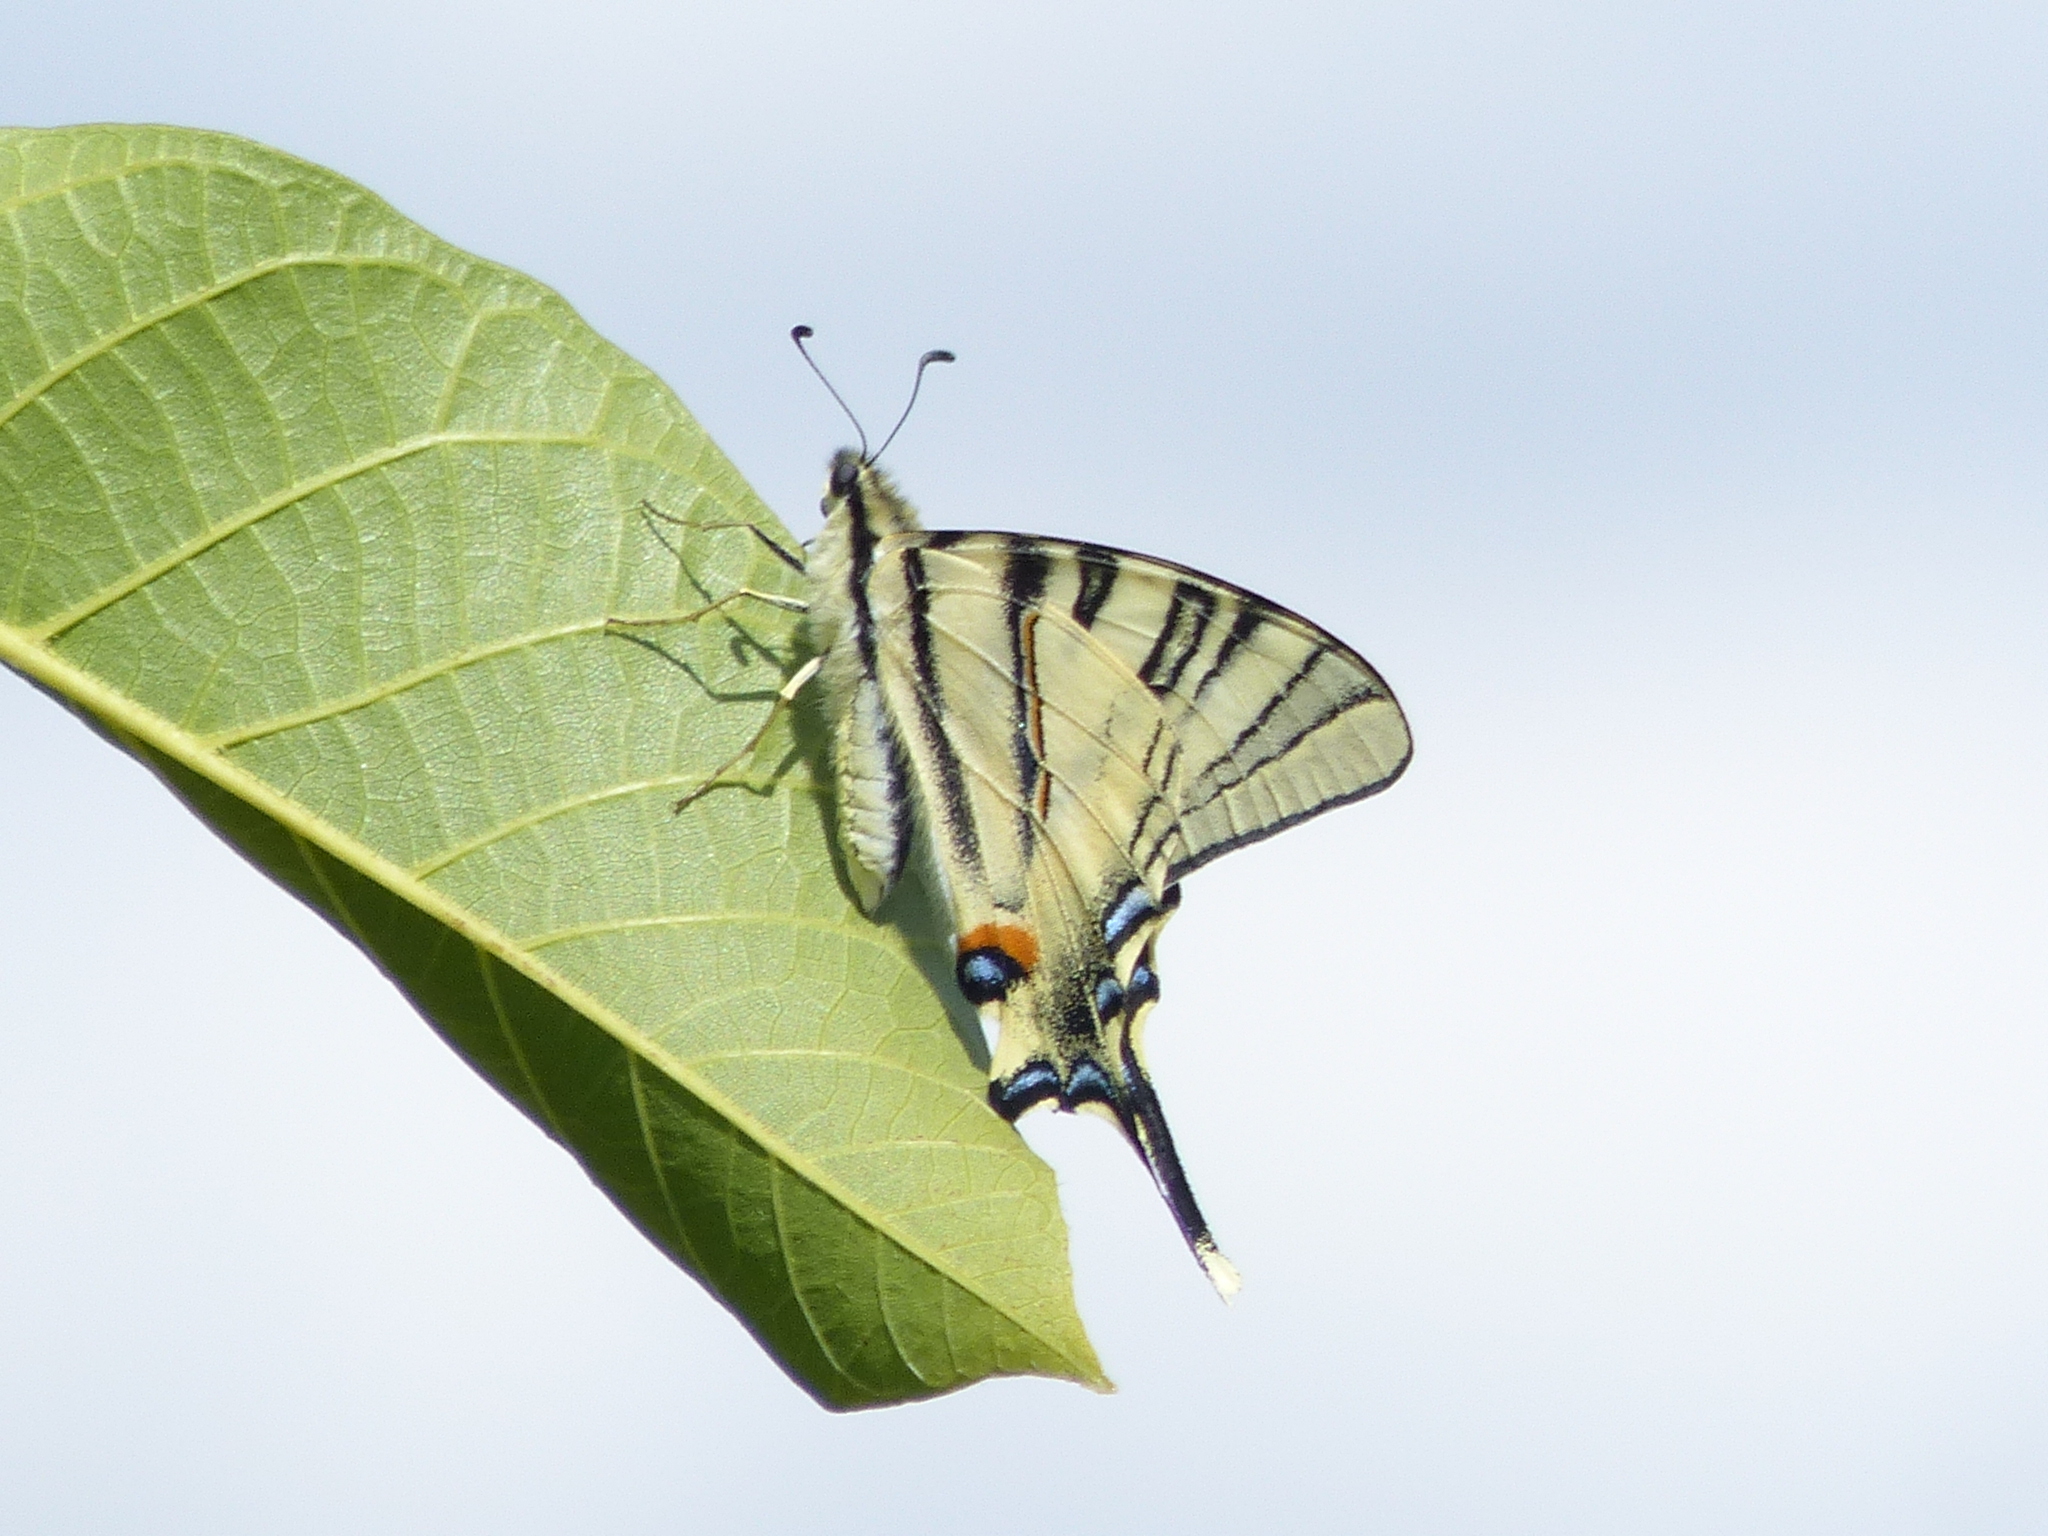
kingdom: Animalia
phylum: Arthropoda
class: Insecta
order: Lepidoptera
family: Papilionidae
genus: Iphiclides
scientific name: Iphiclides podalirius
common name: Scarce swallowtail
